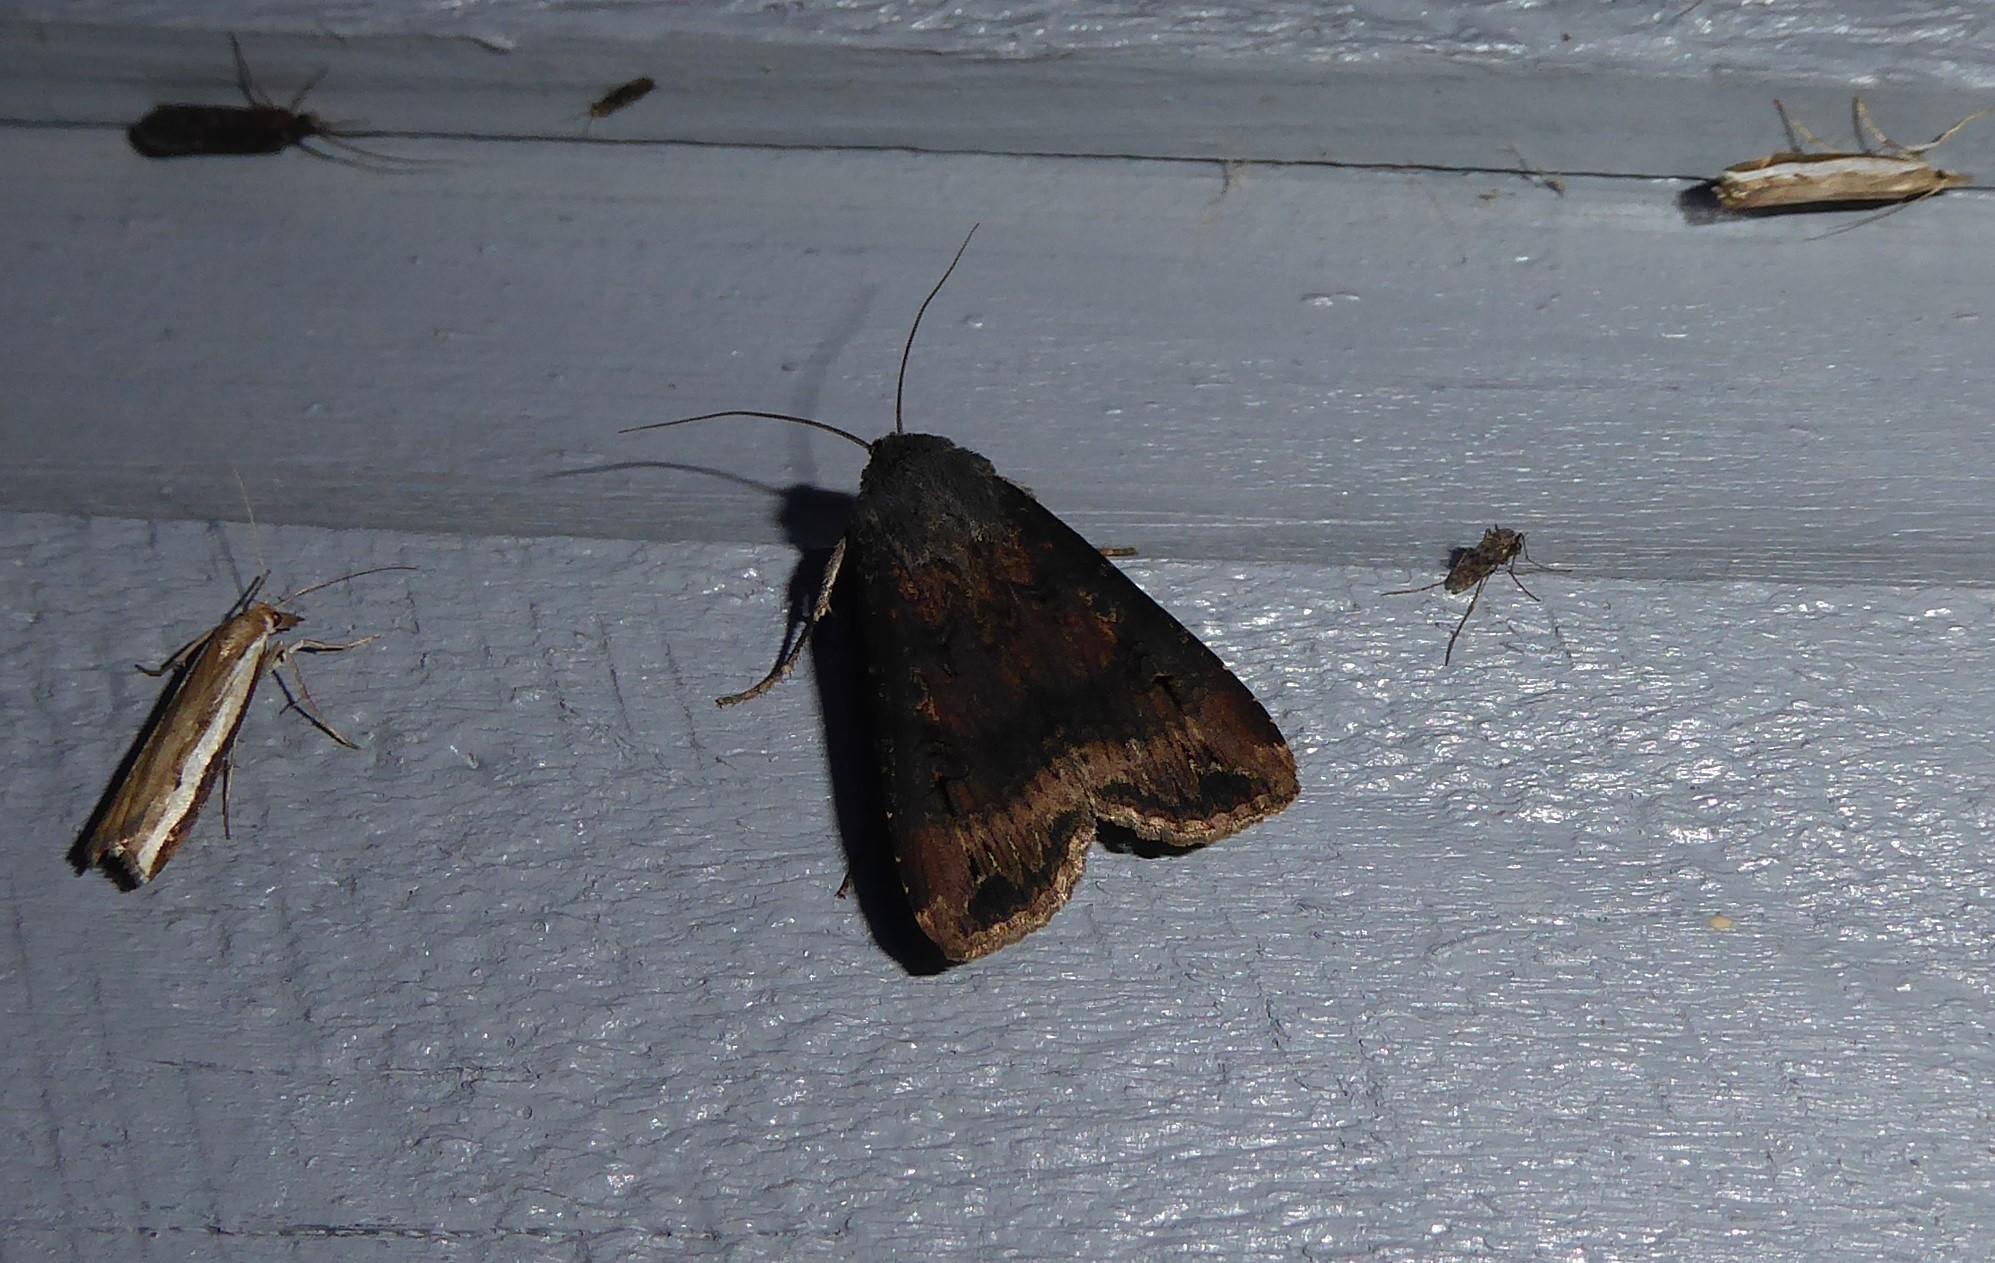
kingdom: Animalia
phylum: Arthropoda
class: Insecta
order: Lepidoptera
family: Noctuidae
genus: Agrotis
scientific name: Agrotis ipsilon
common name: Dark sword-grass
